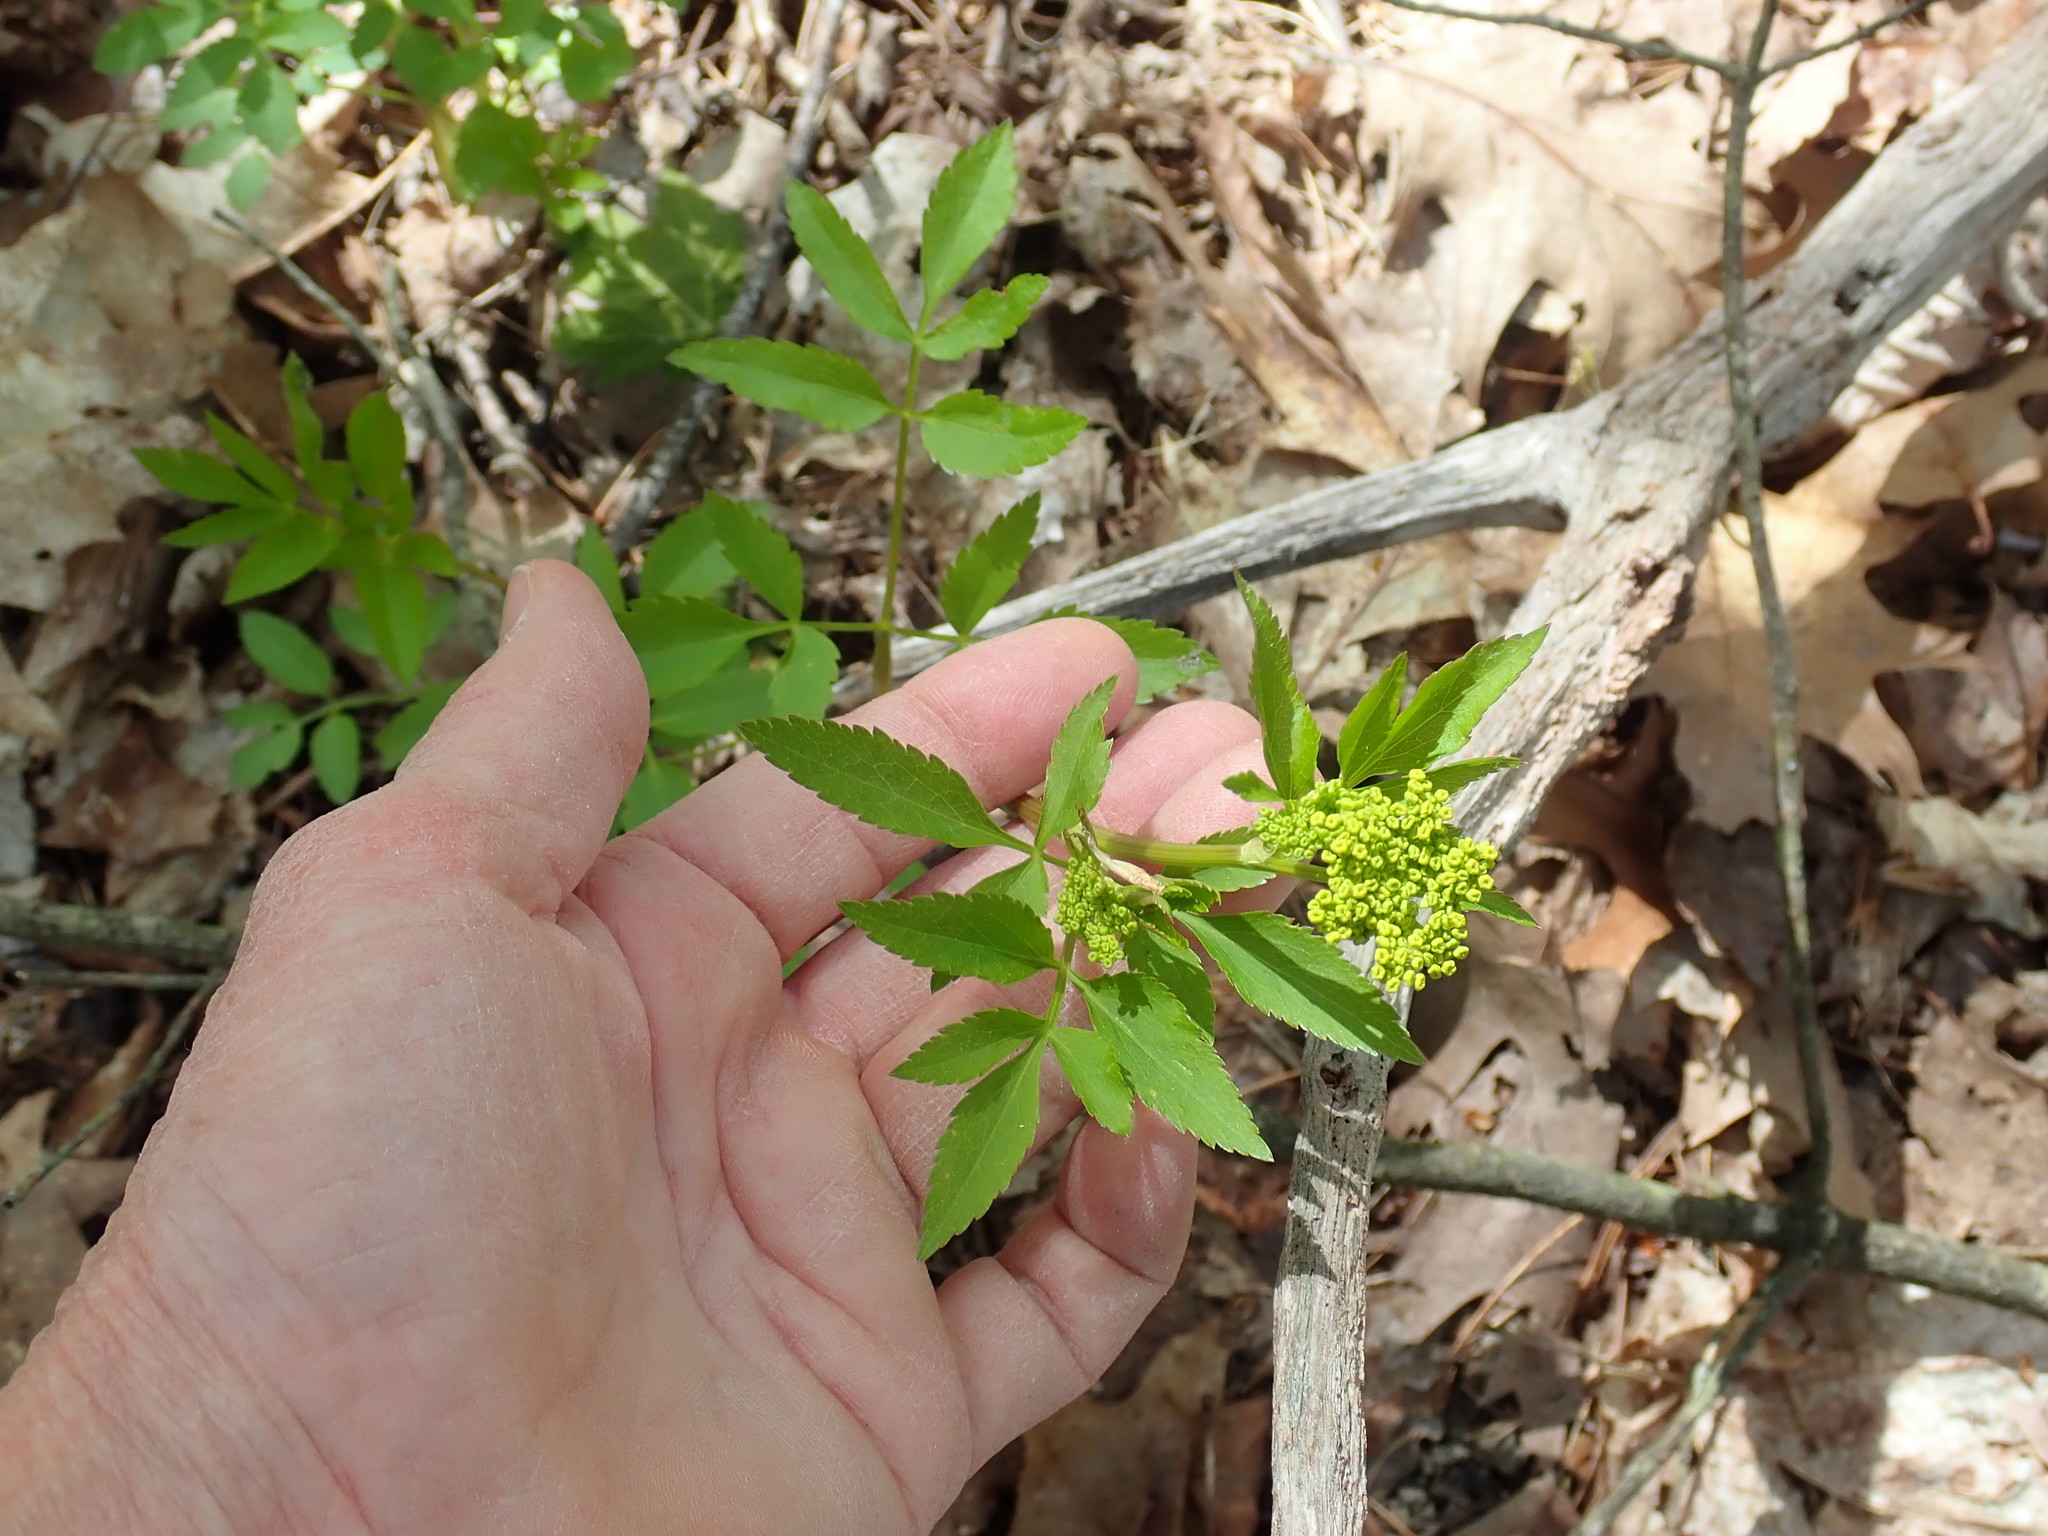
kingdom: Plantae
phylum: Tracheophyta
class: Magnoliopsida
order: Apiales
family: Apiaceae
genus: Zizia
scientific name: Zizia aurea
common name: Golden alexanders
